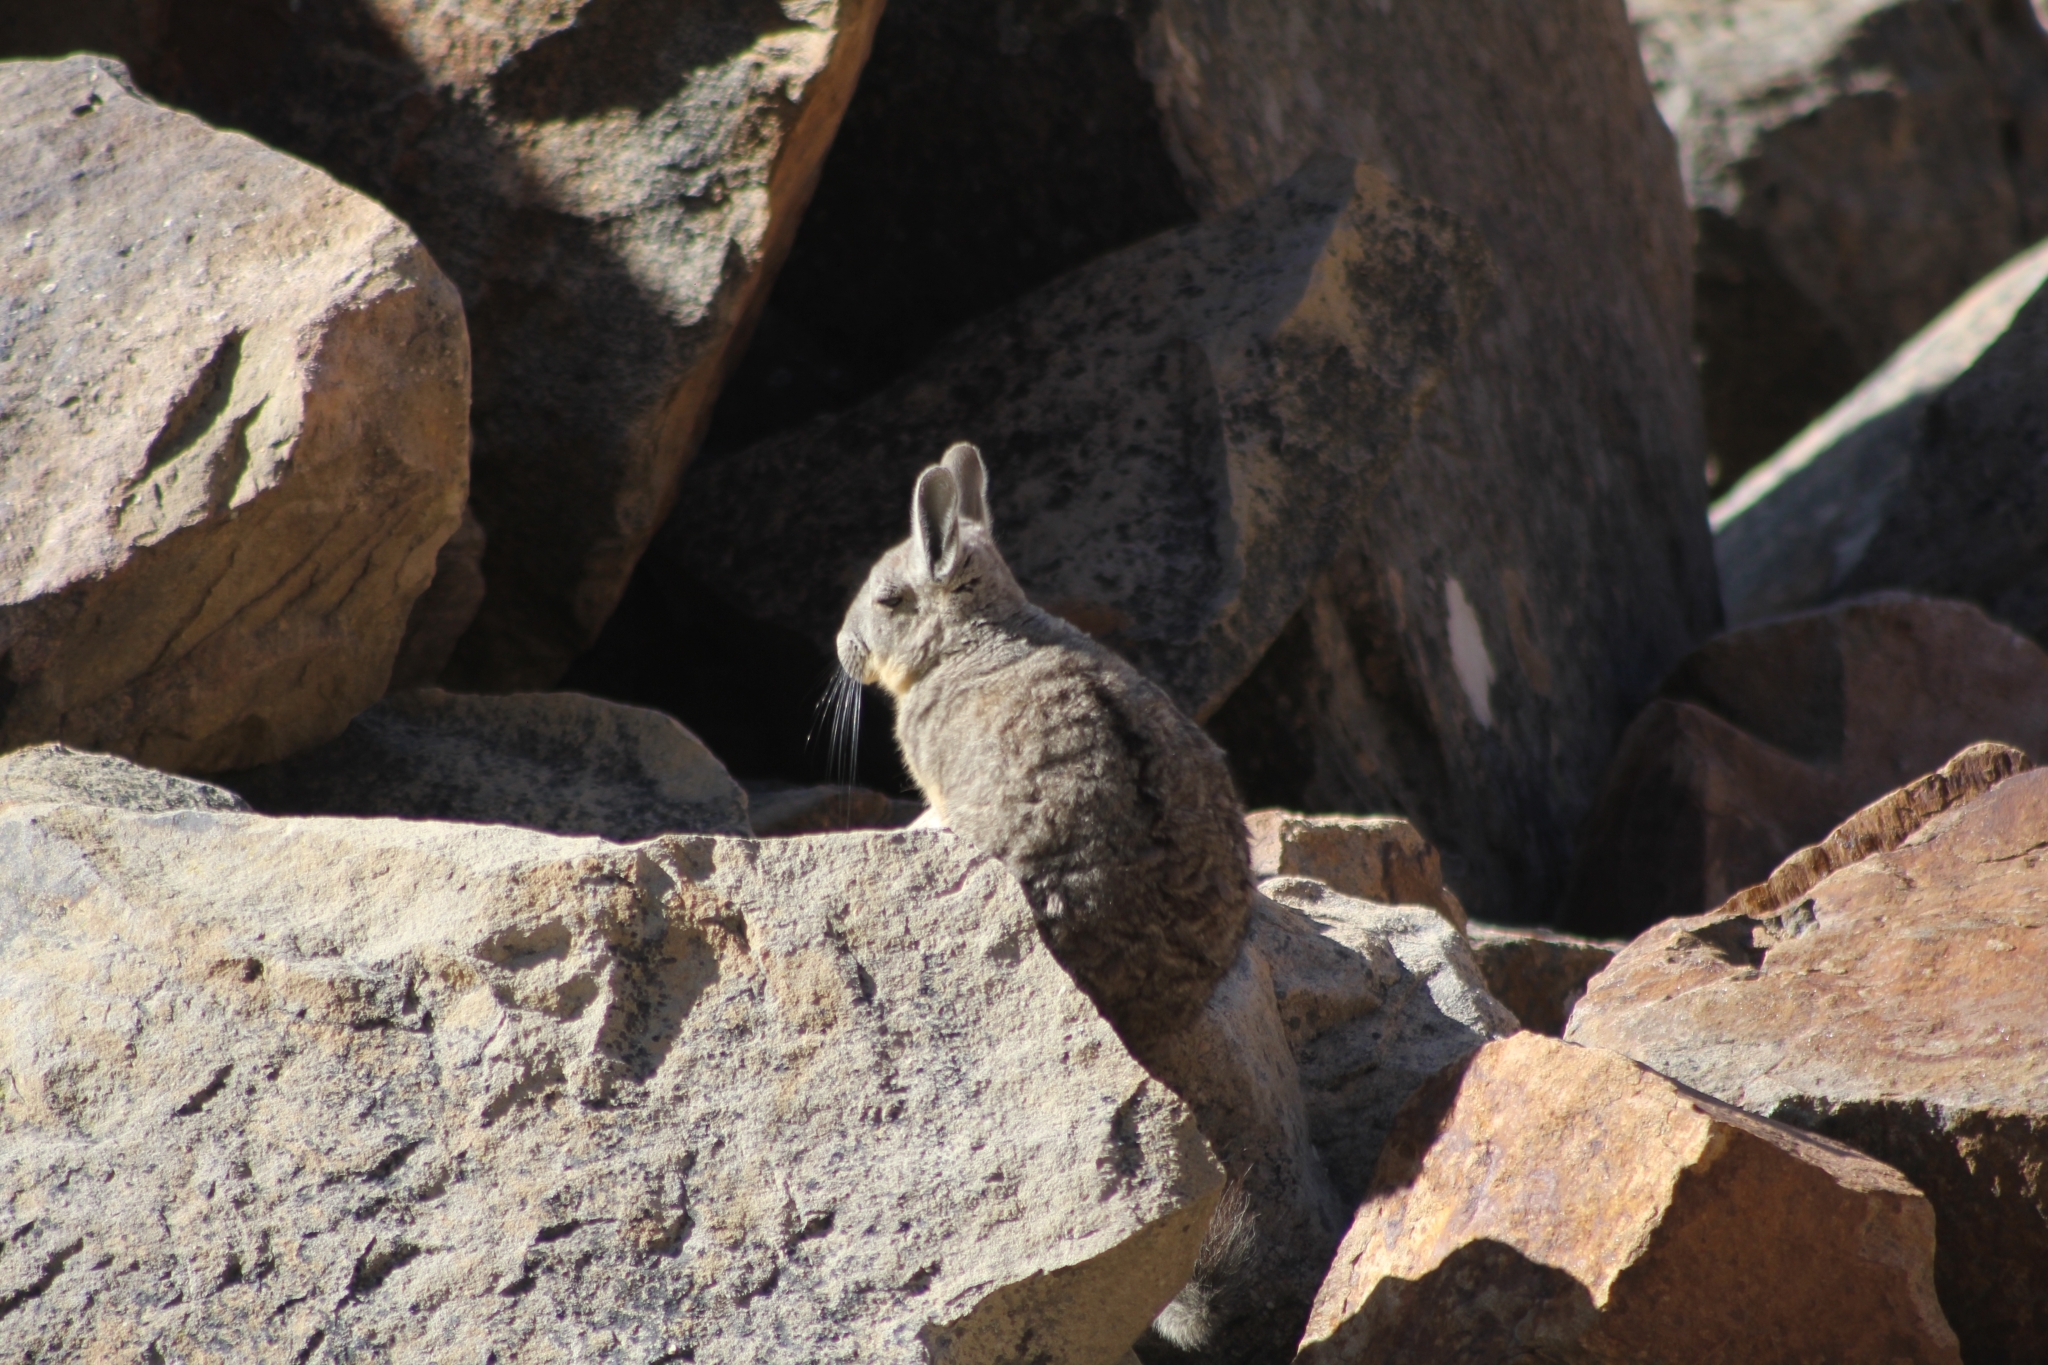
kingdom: Animalia
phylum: Chordata
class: Mammalia
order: Rodentia
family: Chinchillidae
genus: Lagidium
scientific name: Lagidium viscacia
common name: Southern viscacha
